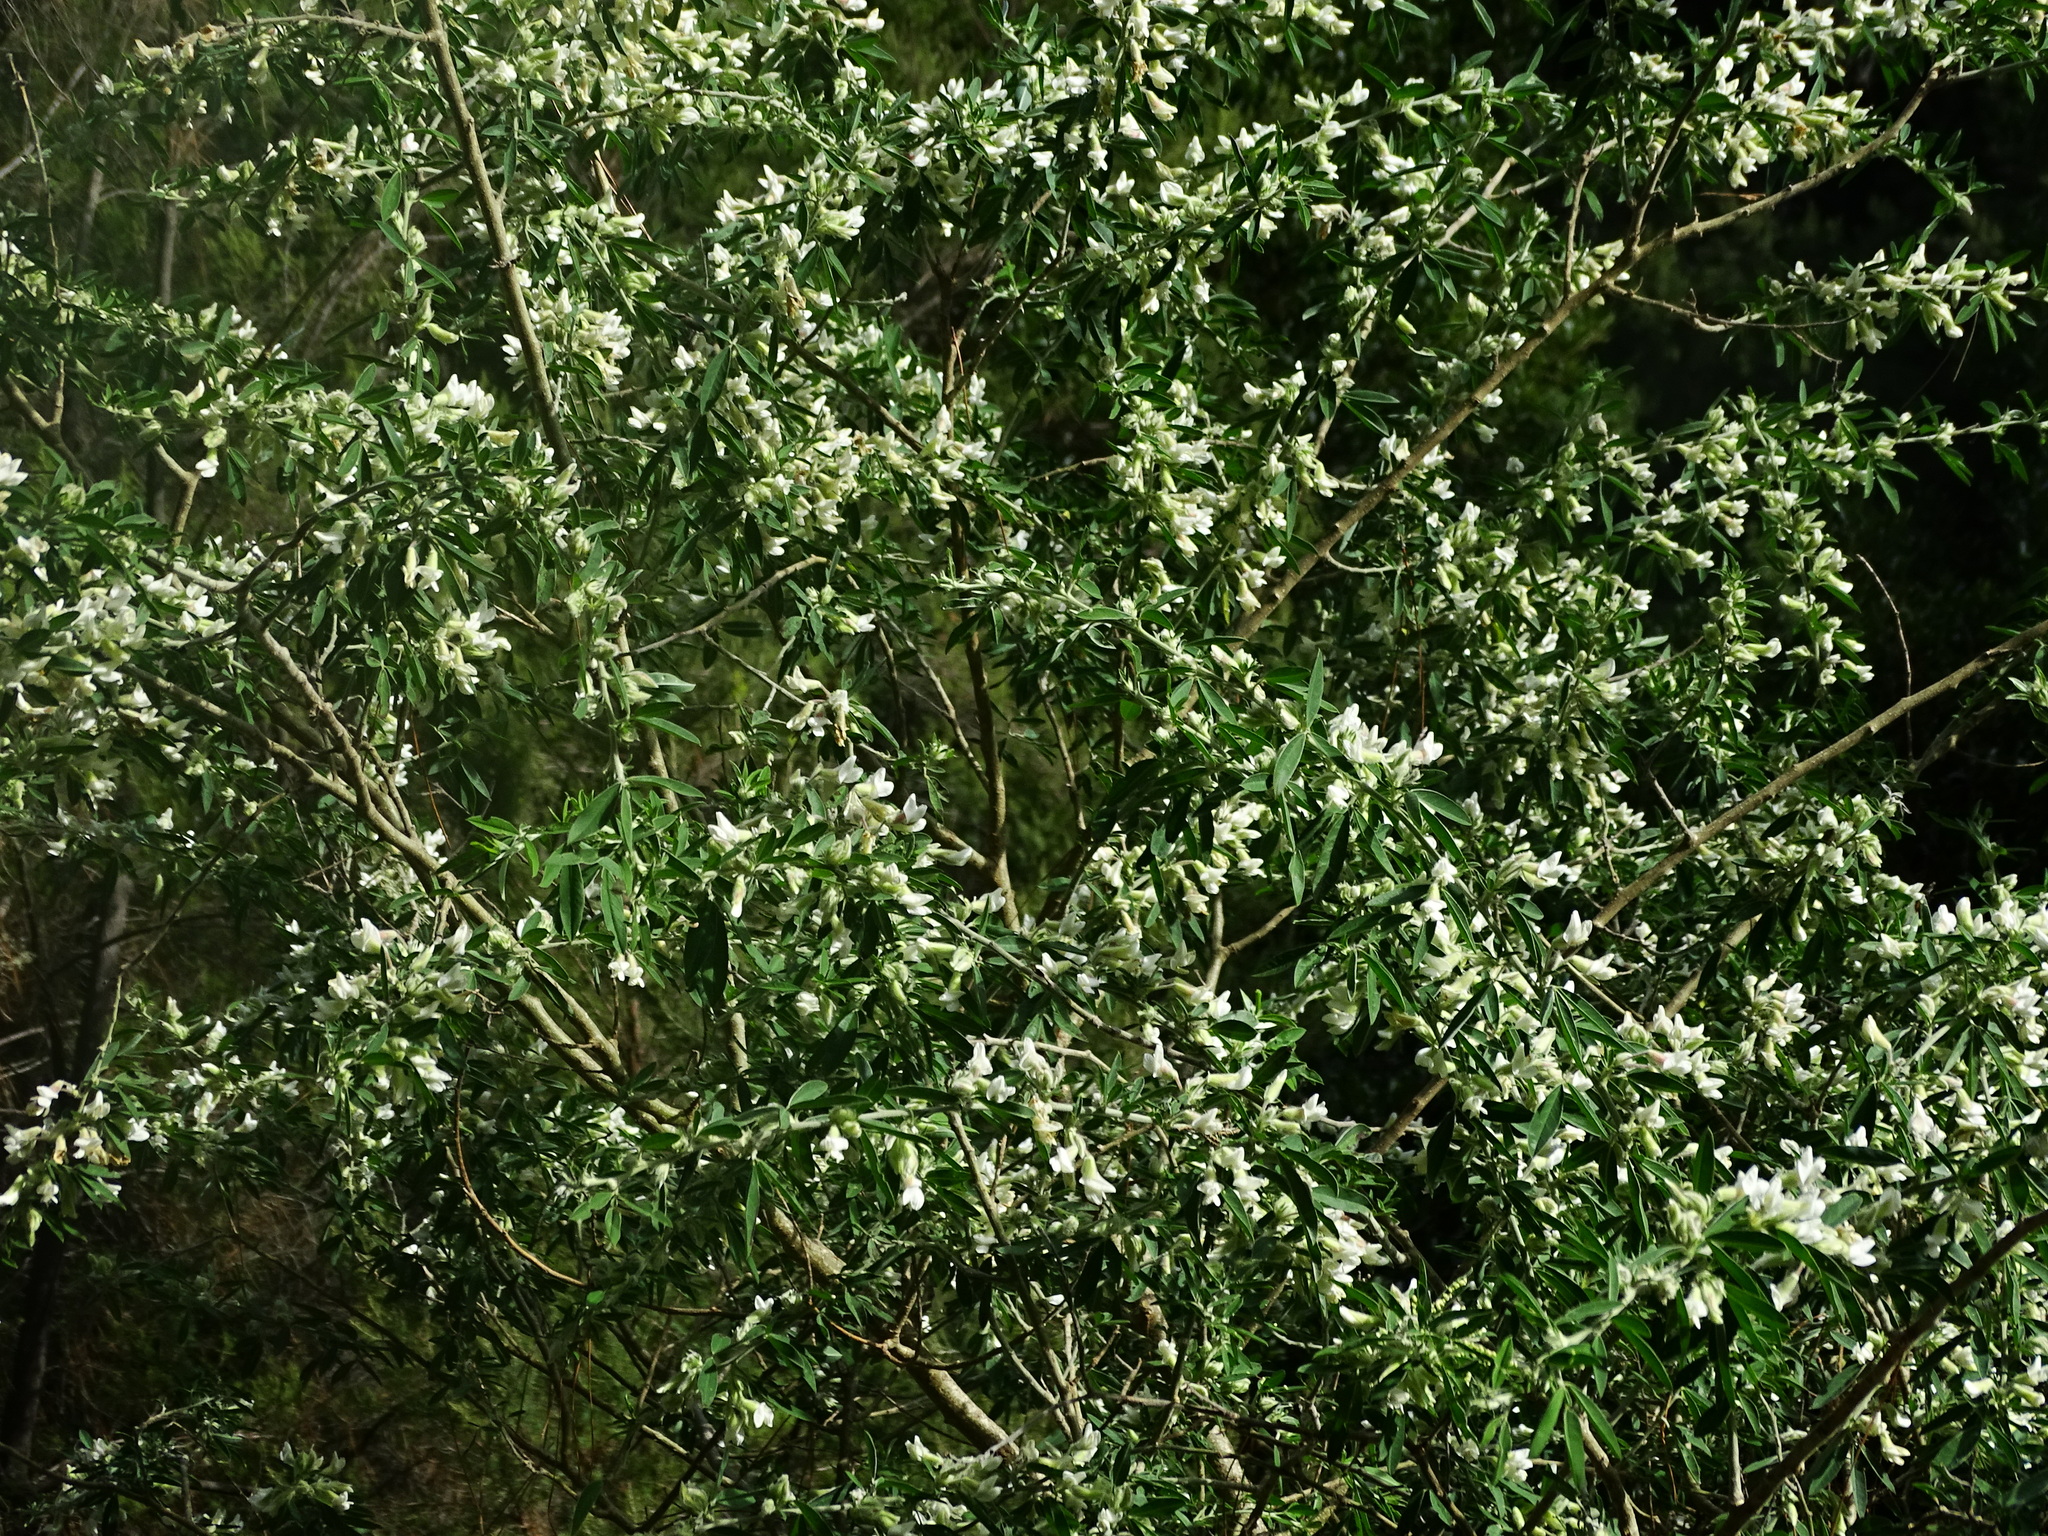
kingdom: Plantae
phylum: Tracheophyta
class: Magnoliopsida
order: Fabales
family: Fabaceae
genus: Chamaecytisus
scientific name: Chamaecytisus prolifer
